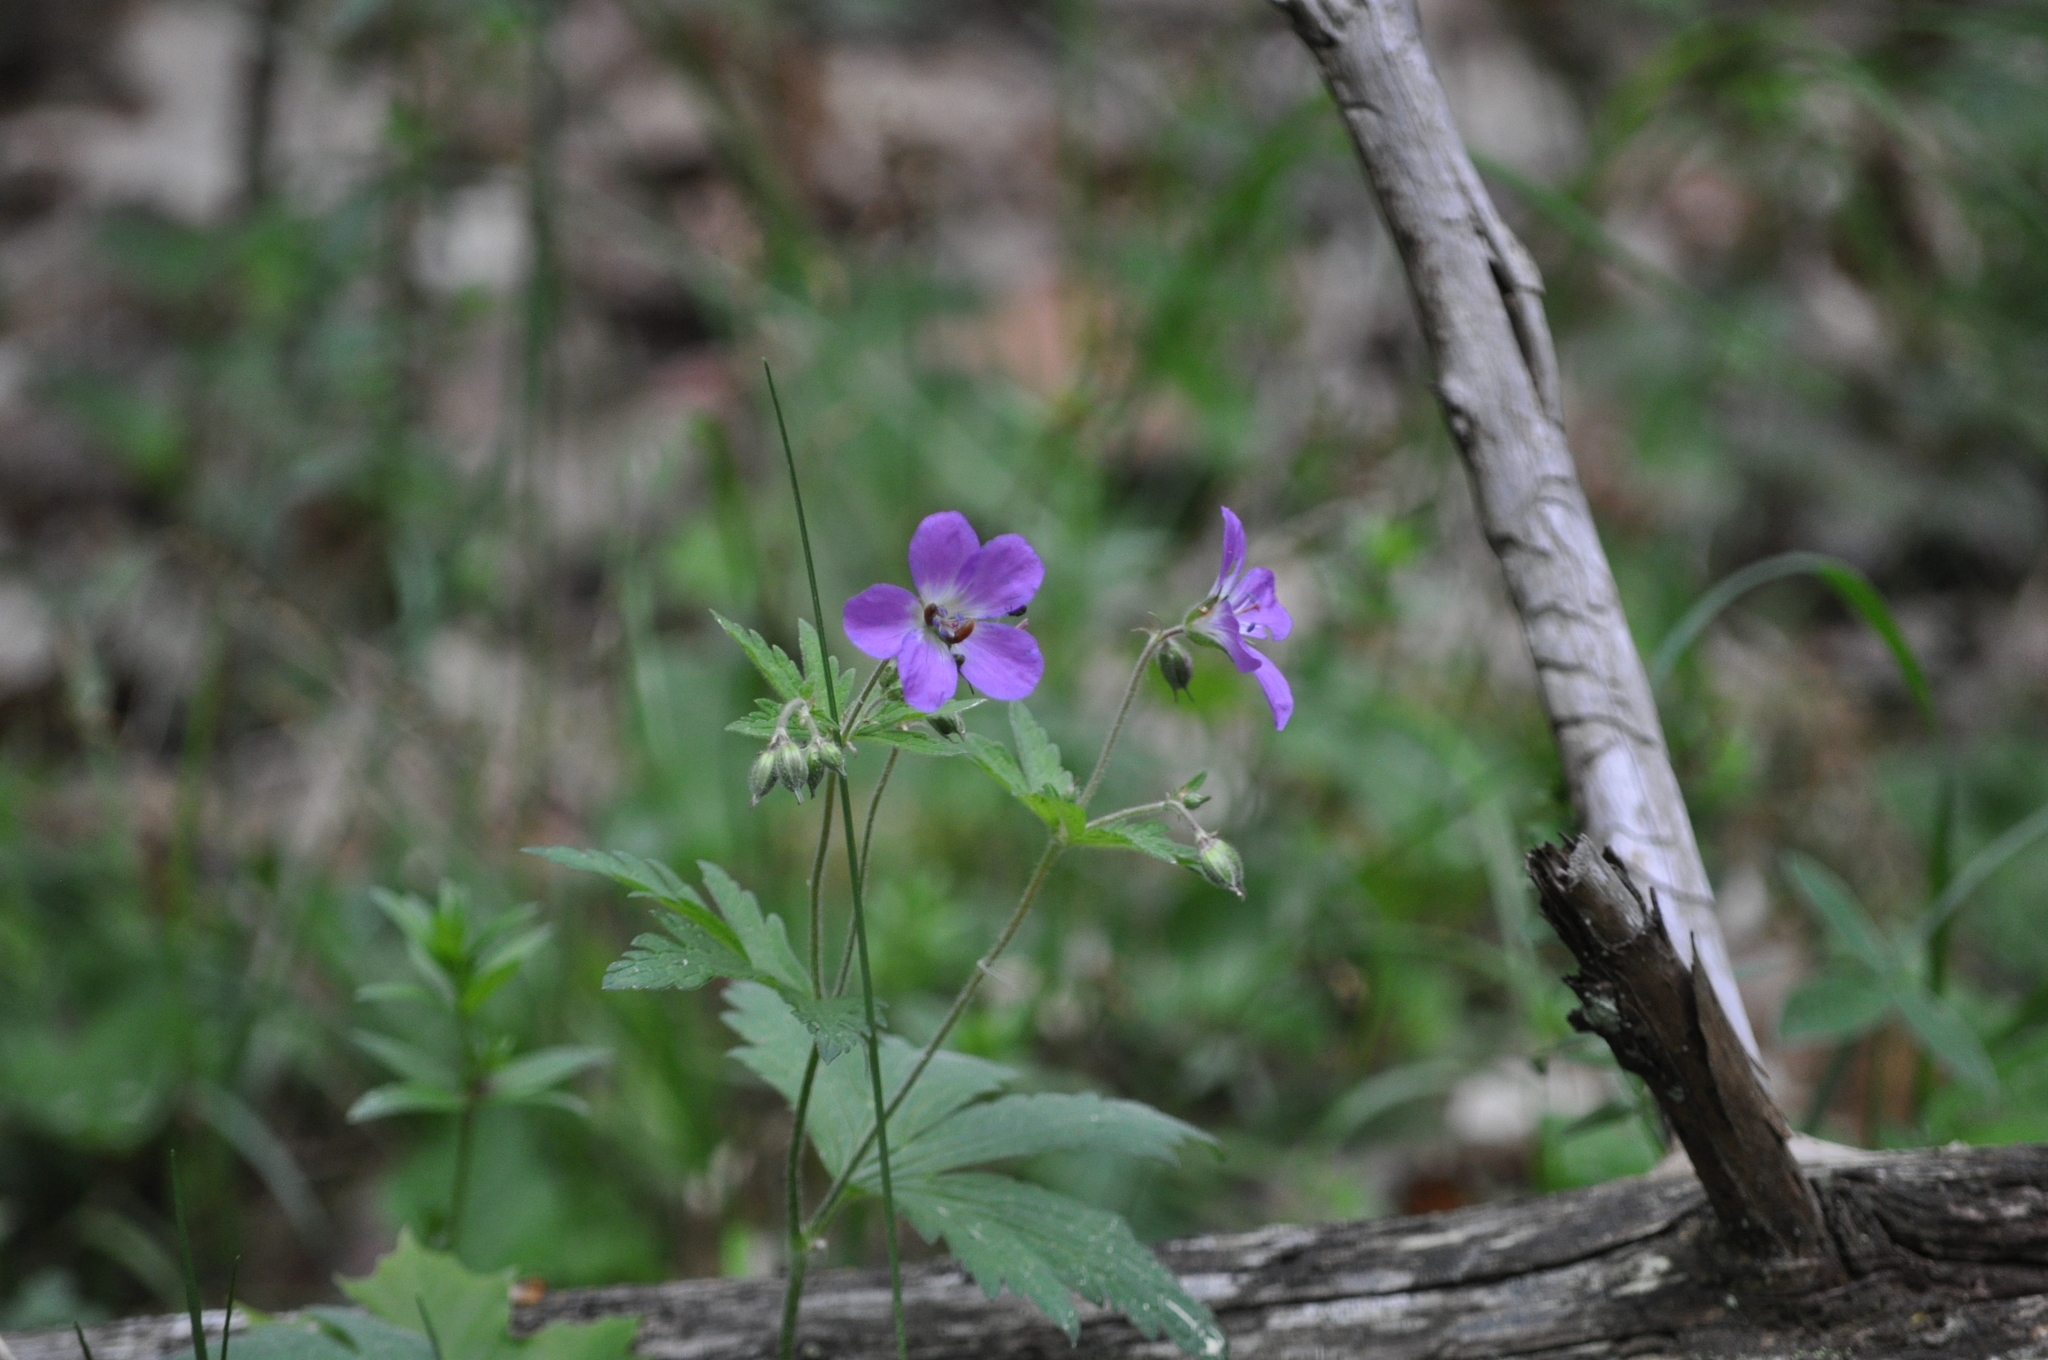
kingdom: Plantae
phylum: Tracheophyta
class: Magnoliopsida
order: Geraniales
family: Geraniaceae
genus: Geranium
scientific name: Geranium sylvaticum
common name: Wood crane's-bill
